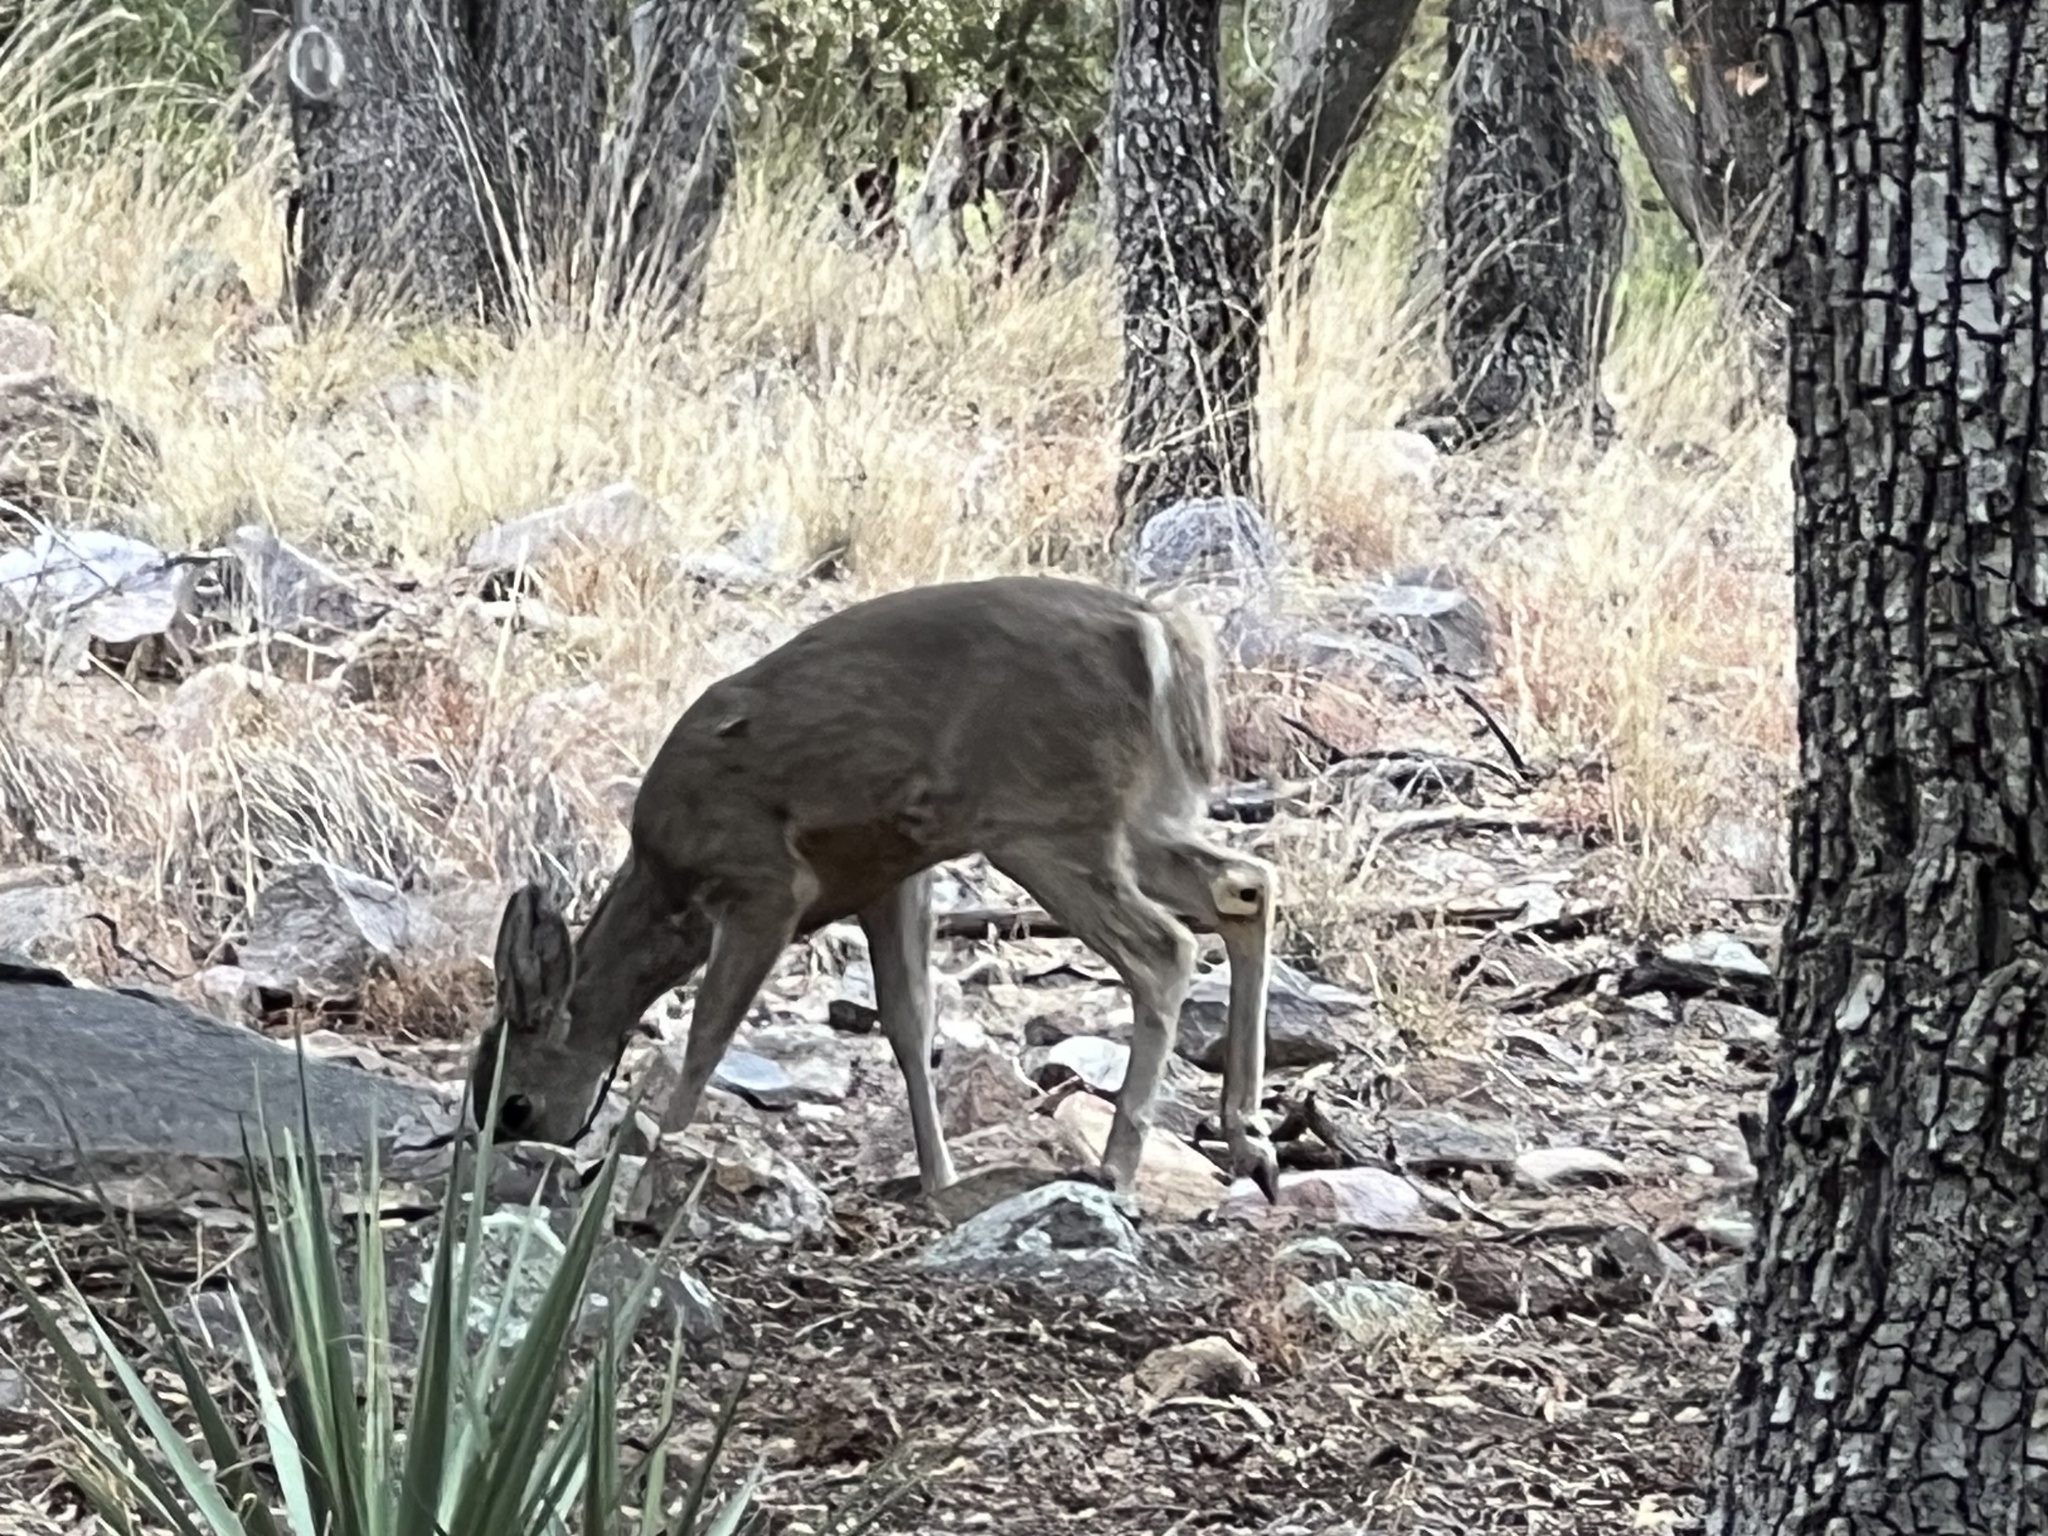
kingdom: Animalia
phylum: Chordata
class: Mammalia
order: Artiodactyla
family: Cervidae
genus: Odocoileus
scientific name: Odocoileus virginianus
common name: White-tailed deer
